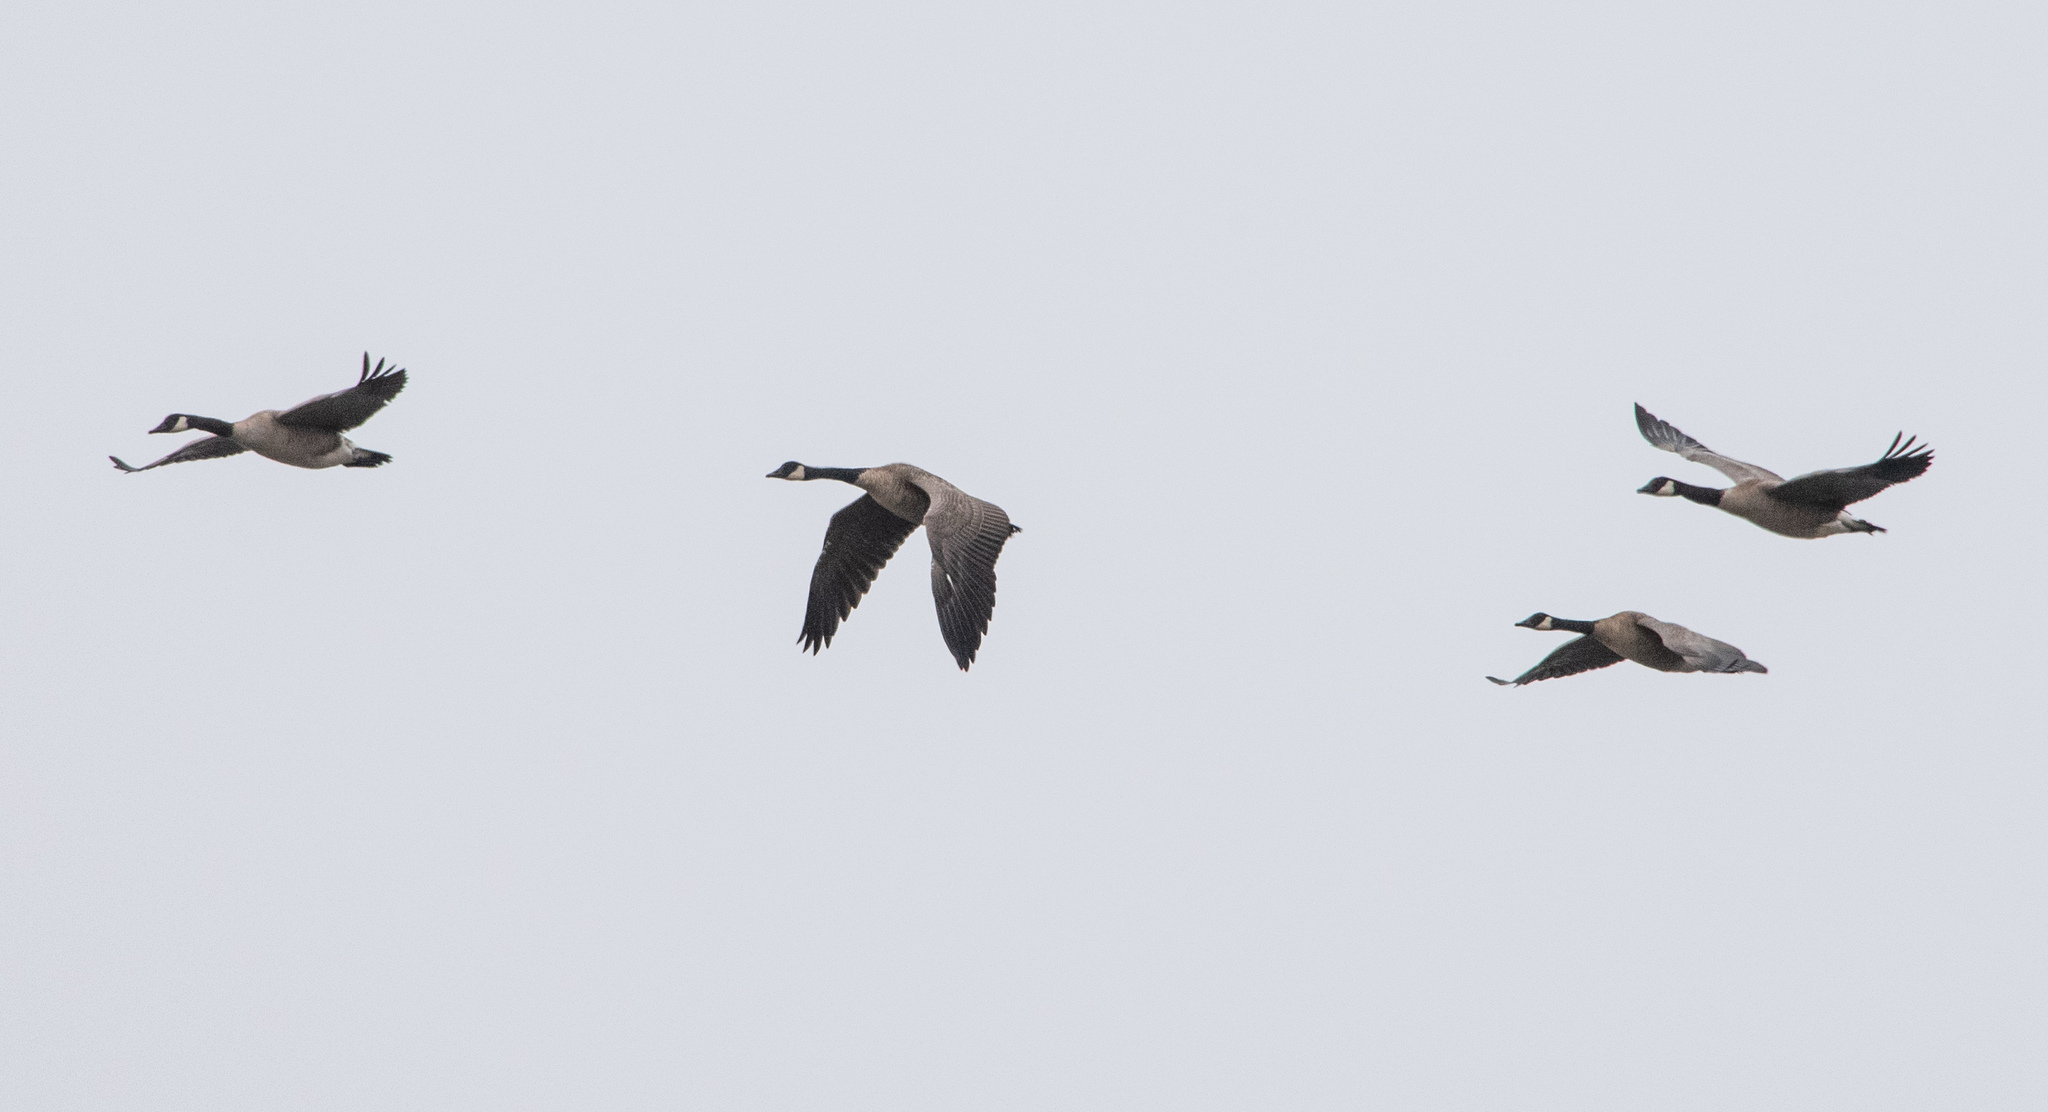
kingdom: Animalia
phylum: Chordata
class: Aves
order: Anseriformes
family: Anatidae
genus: Branta
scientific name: Branta canadensis
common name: Canada goose
